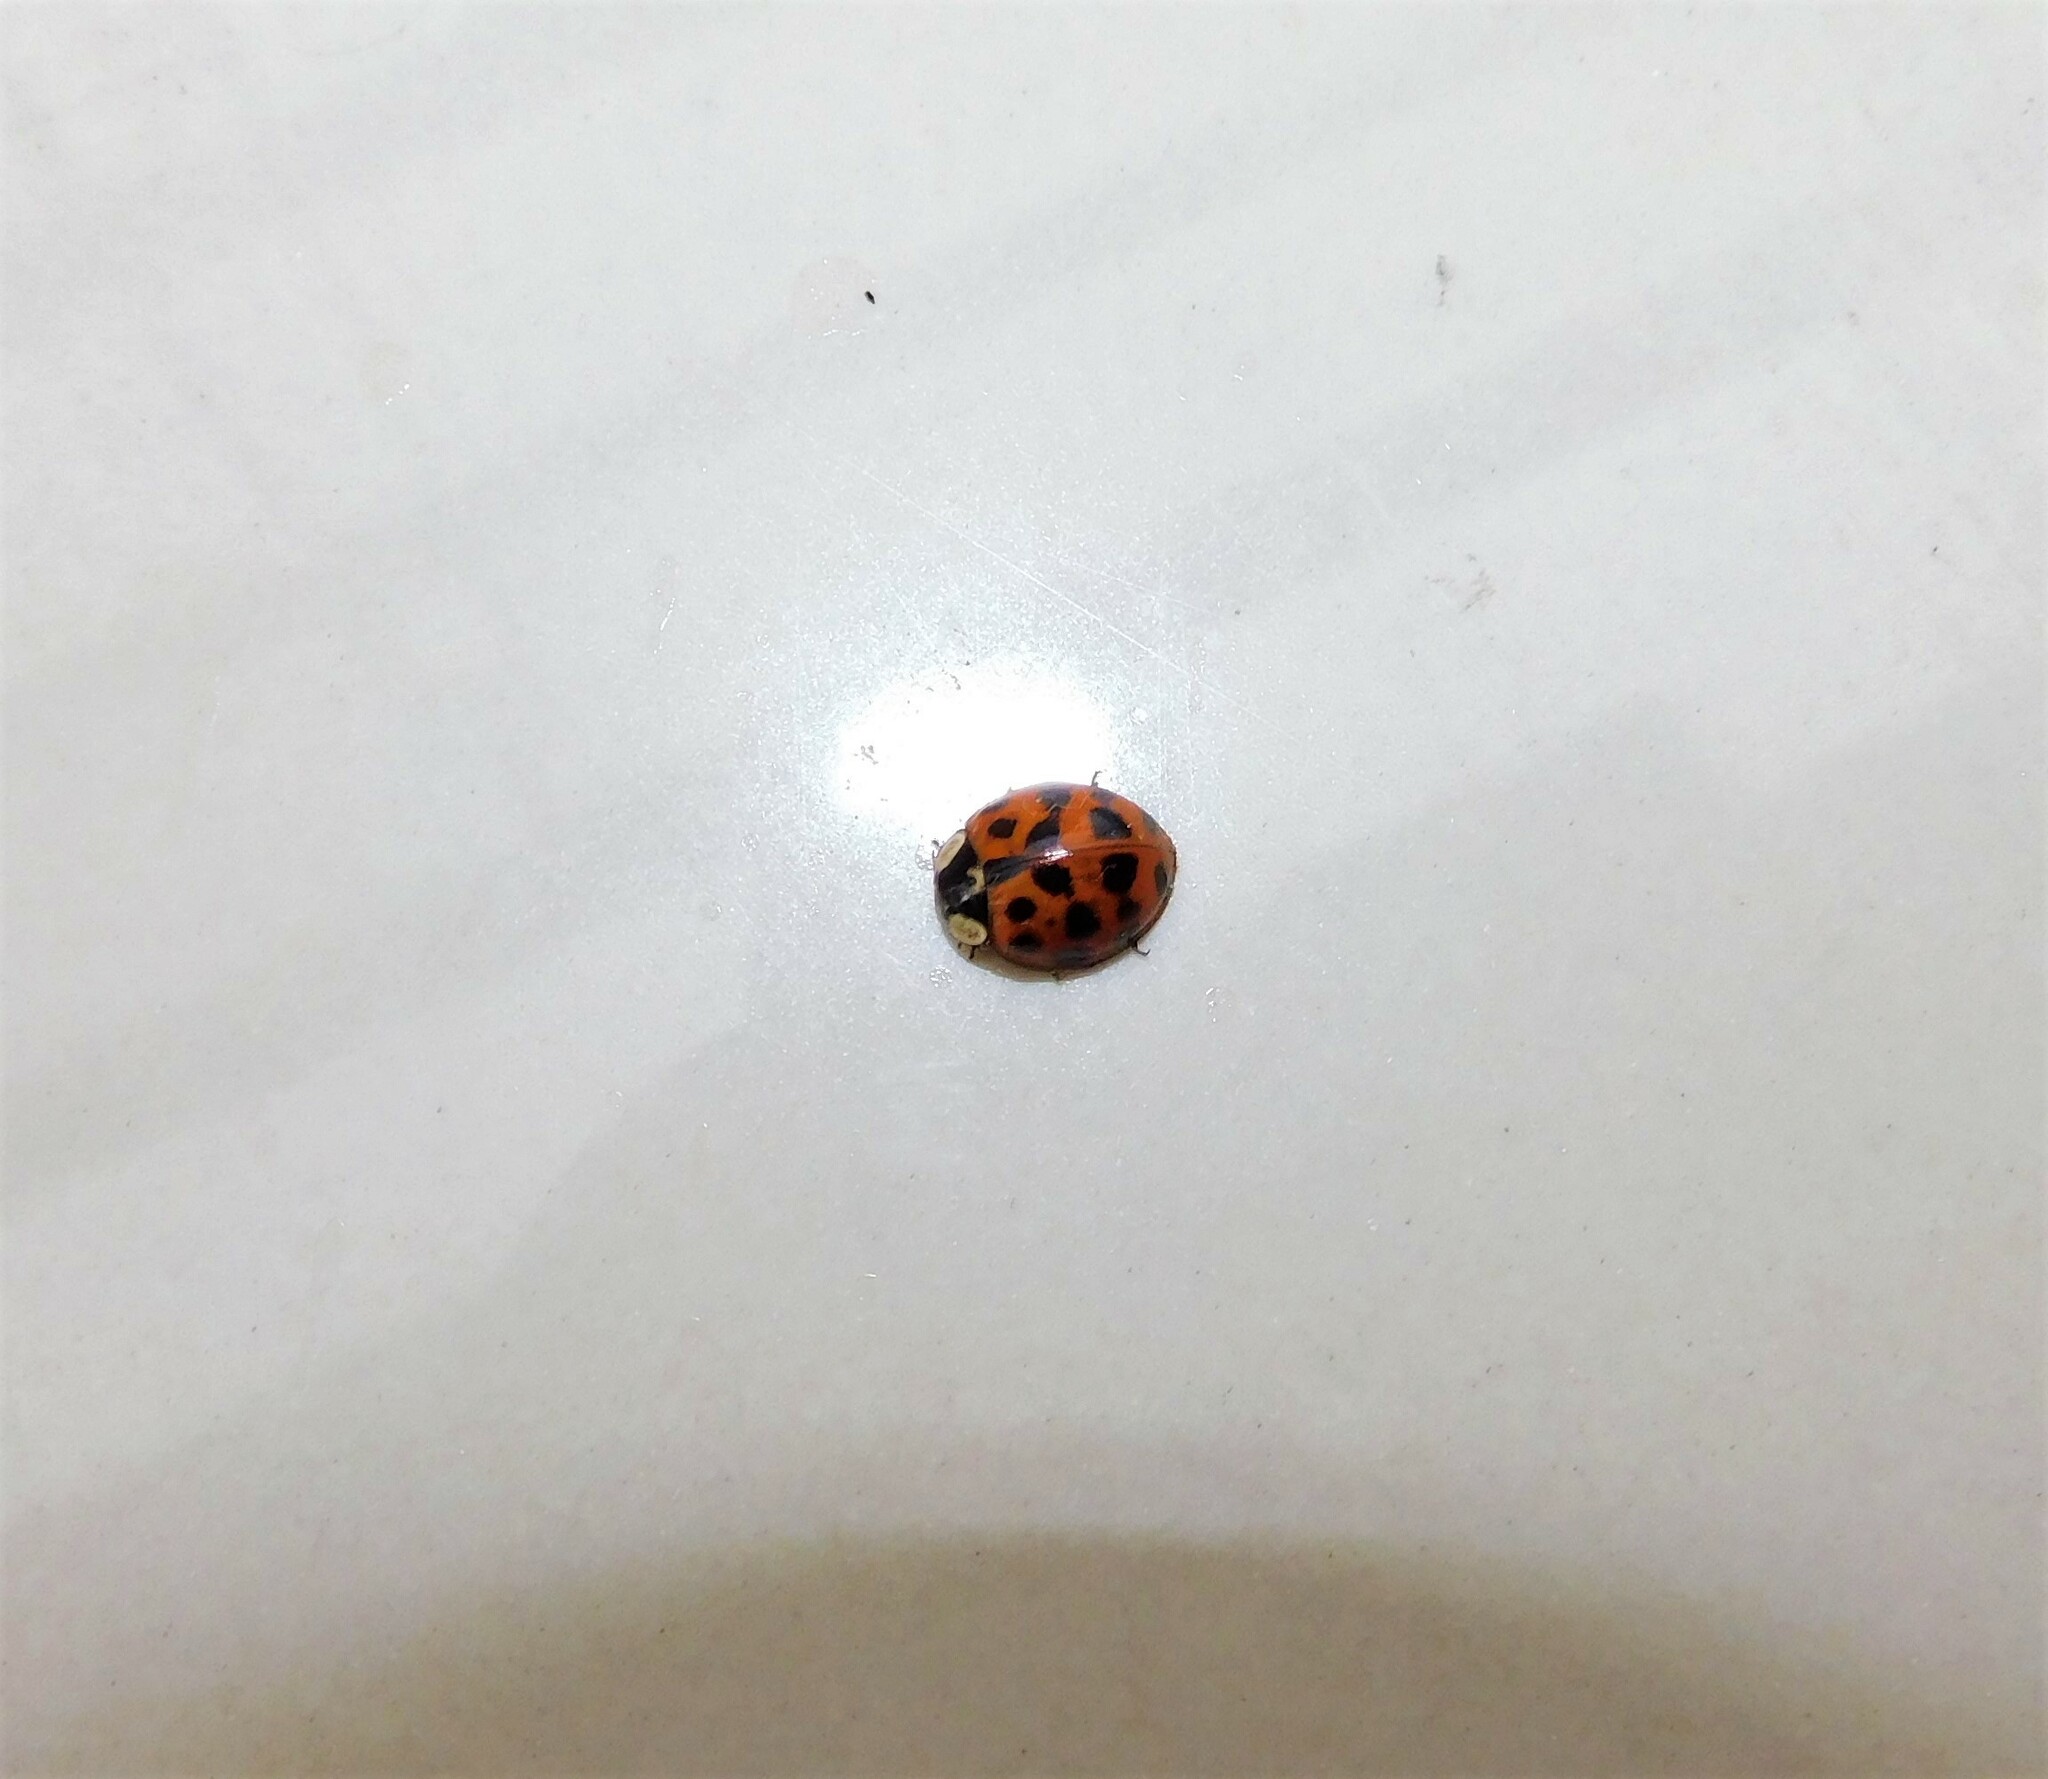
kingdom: Animalia
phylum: Arthropoda
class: Insecta
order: Coleoptera
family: Coccinellidae
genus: Harmonia
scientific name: Harmonia axyridis
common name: Harlequin ladybird
